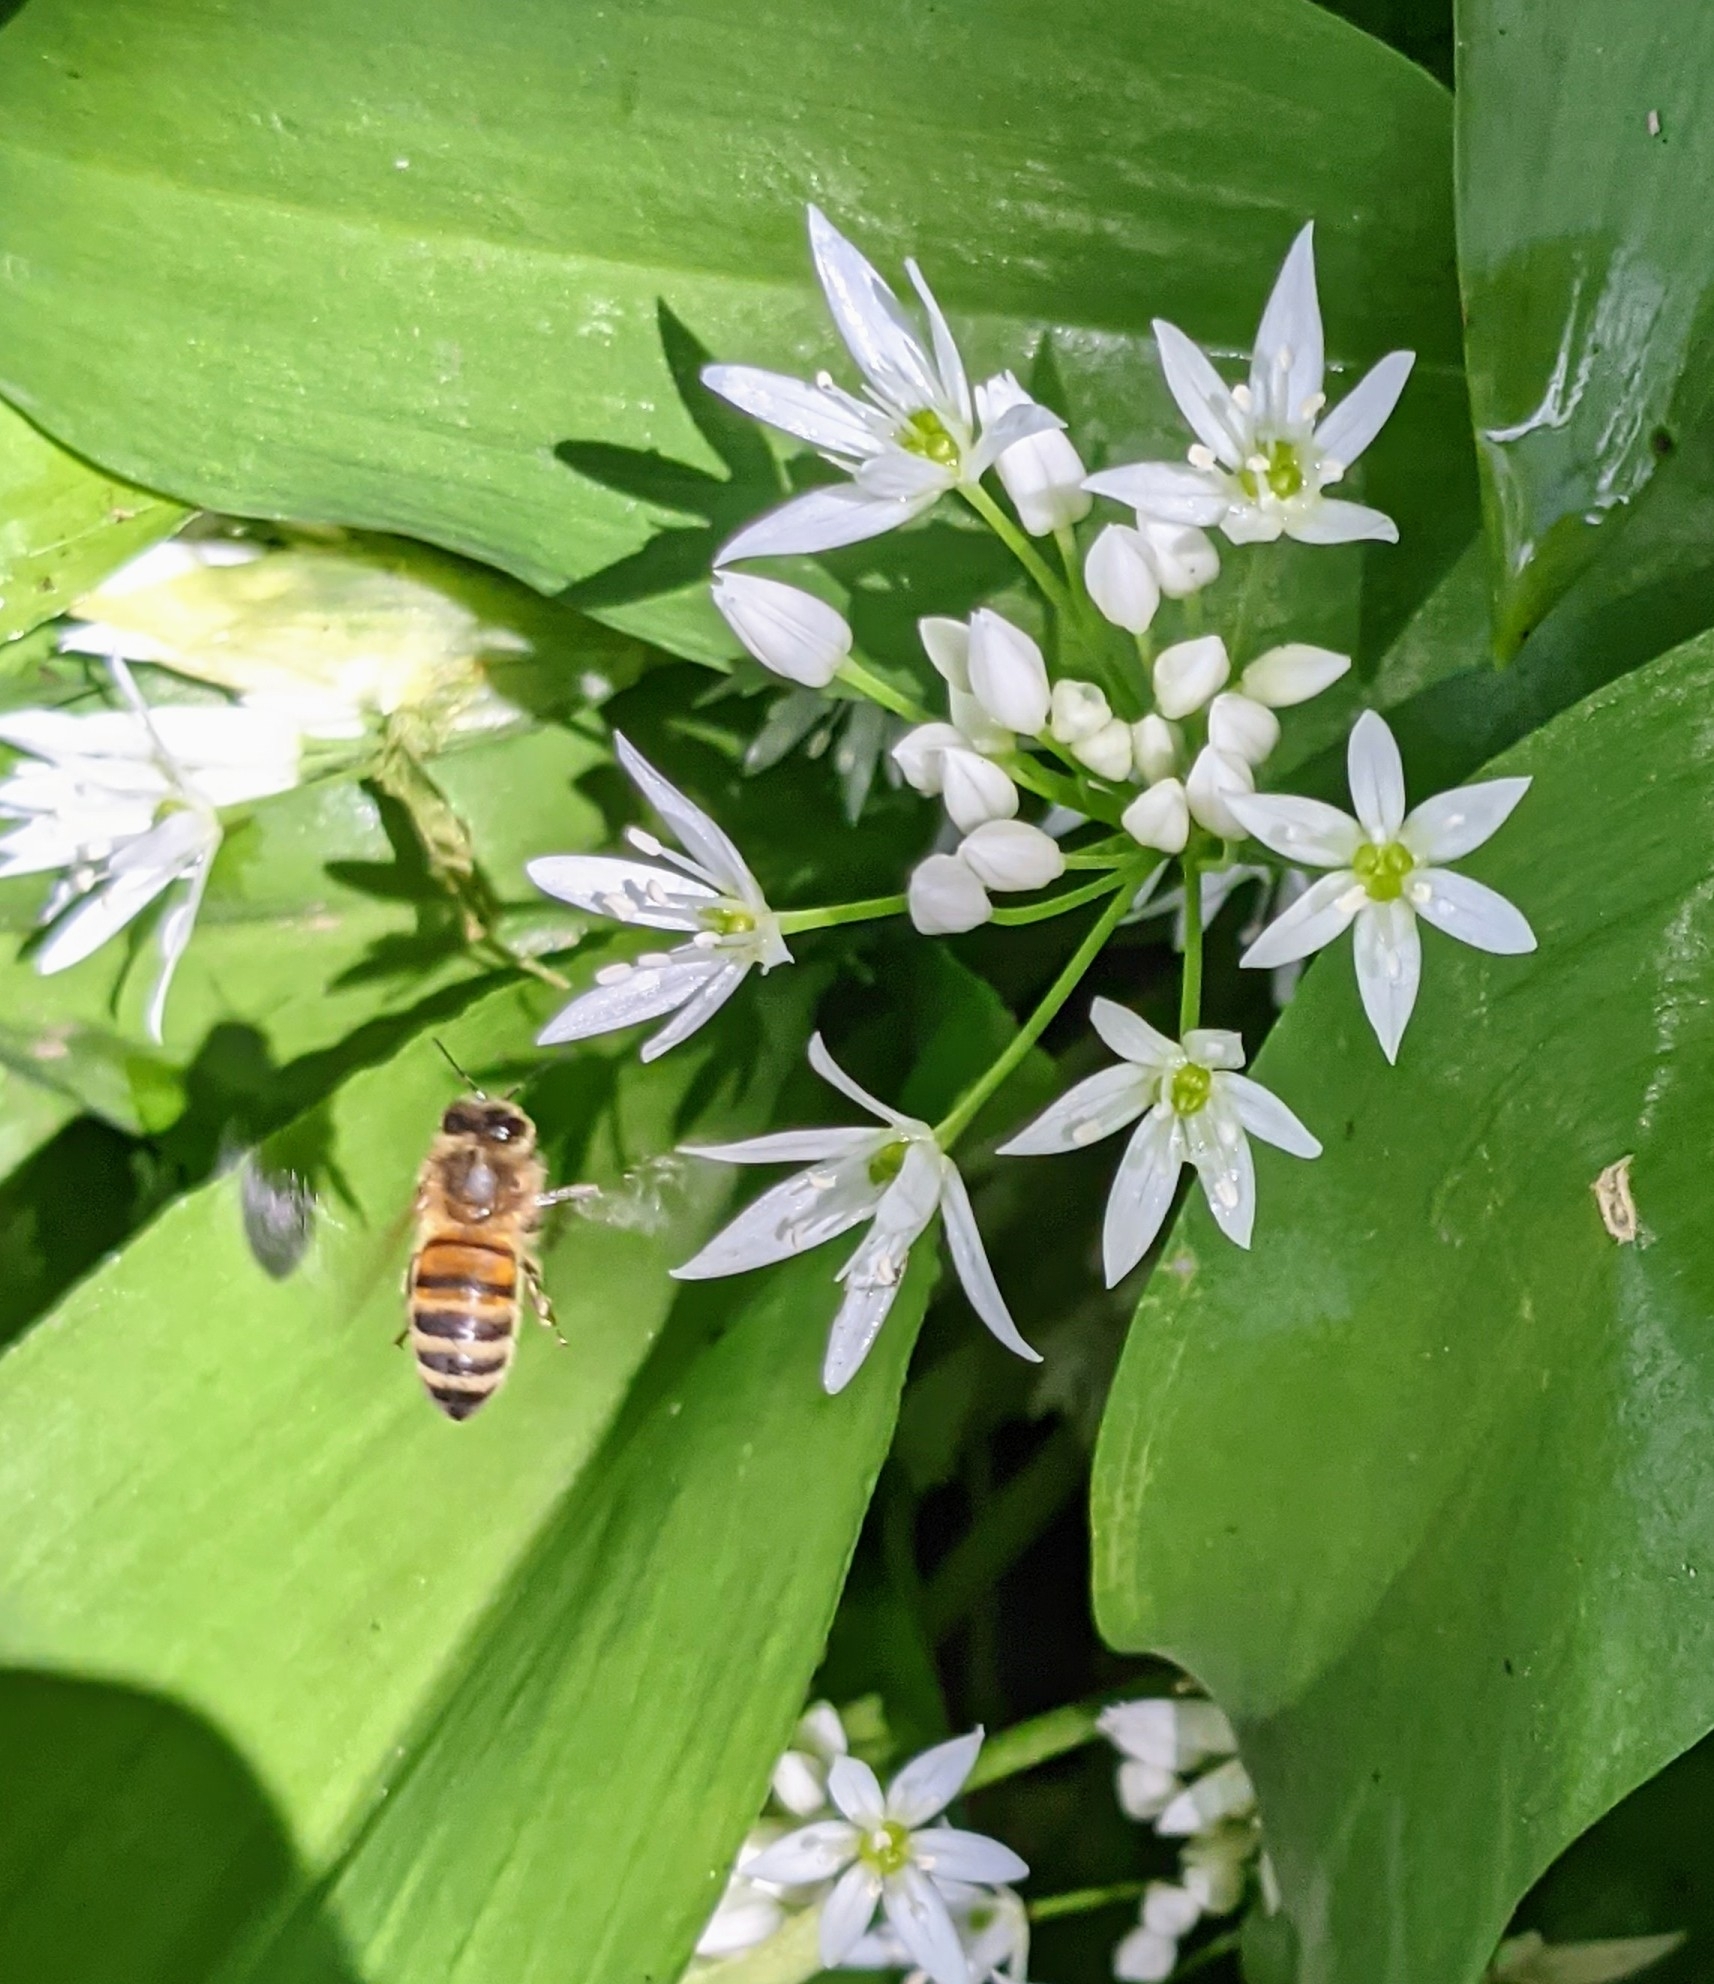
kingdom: Animalia
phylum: Arthropoda
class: Insecta
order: Hymenoptera
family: Apidae
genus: Apis
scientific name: Apis mellifera
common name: Honey bee
